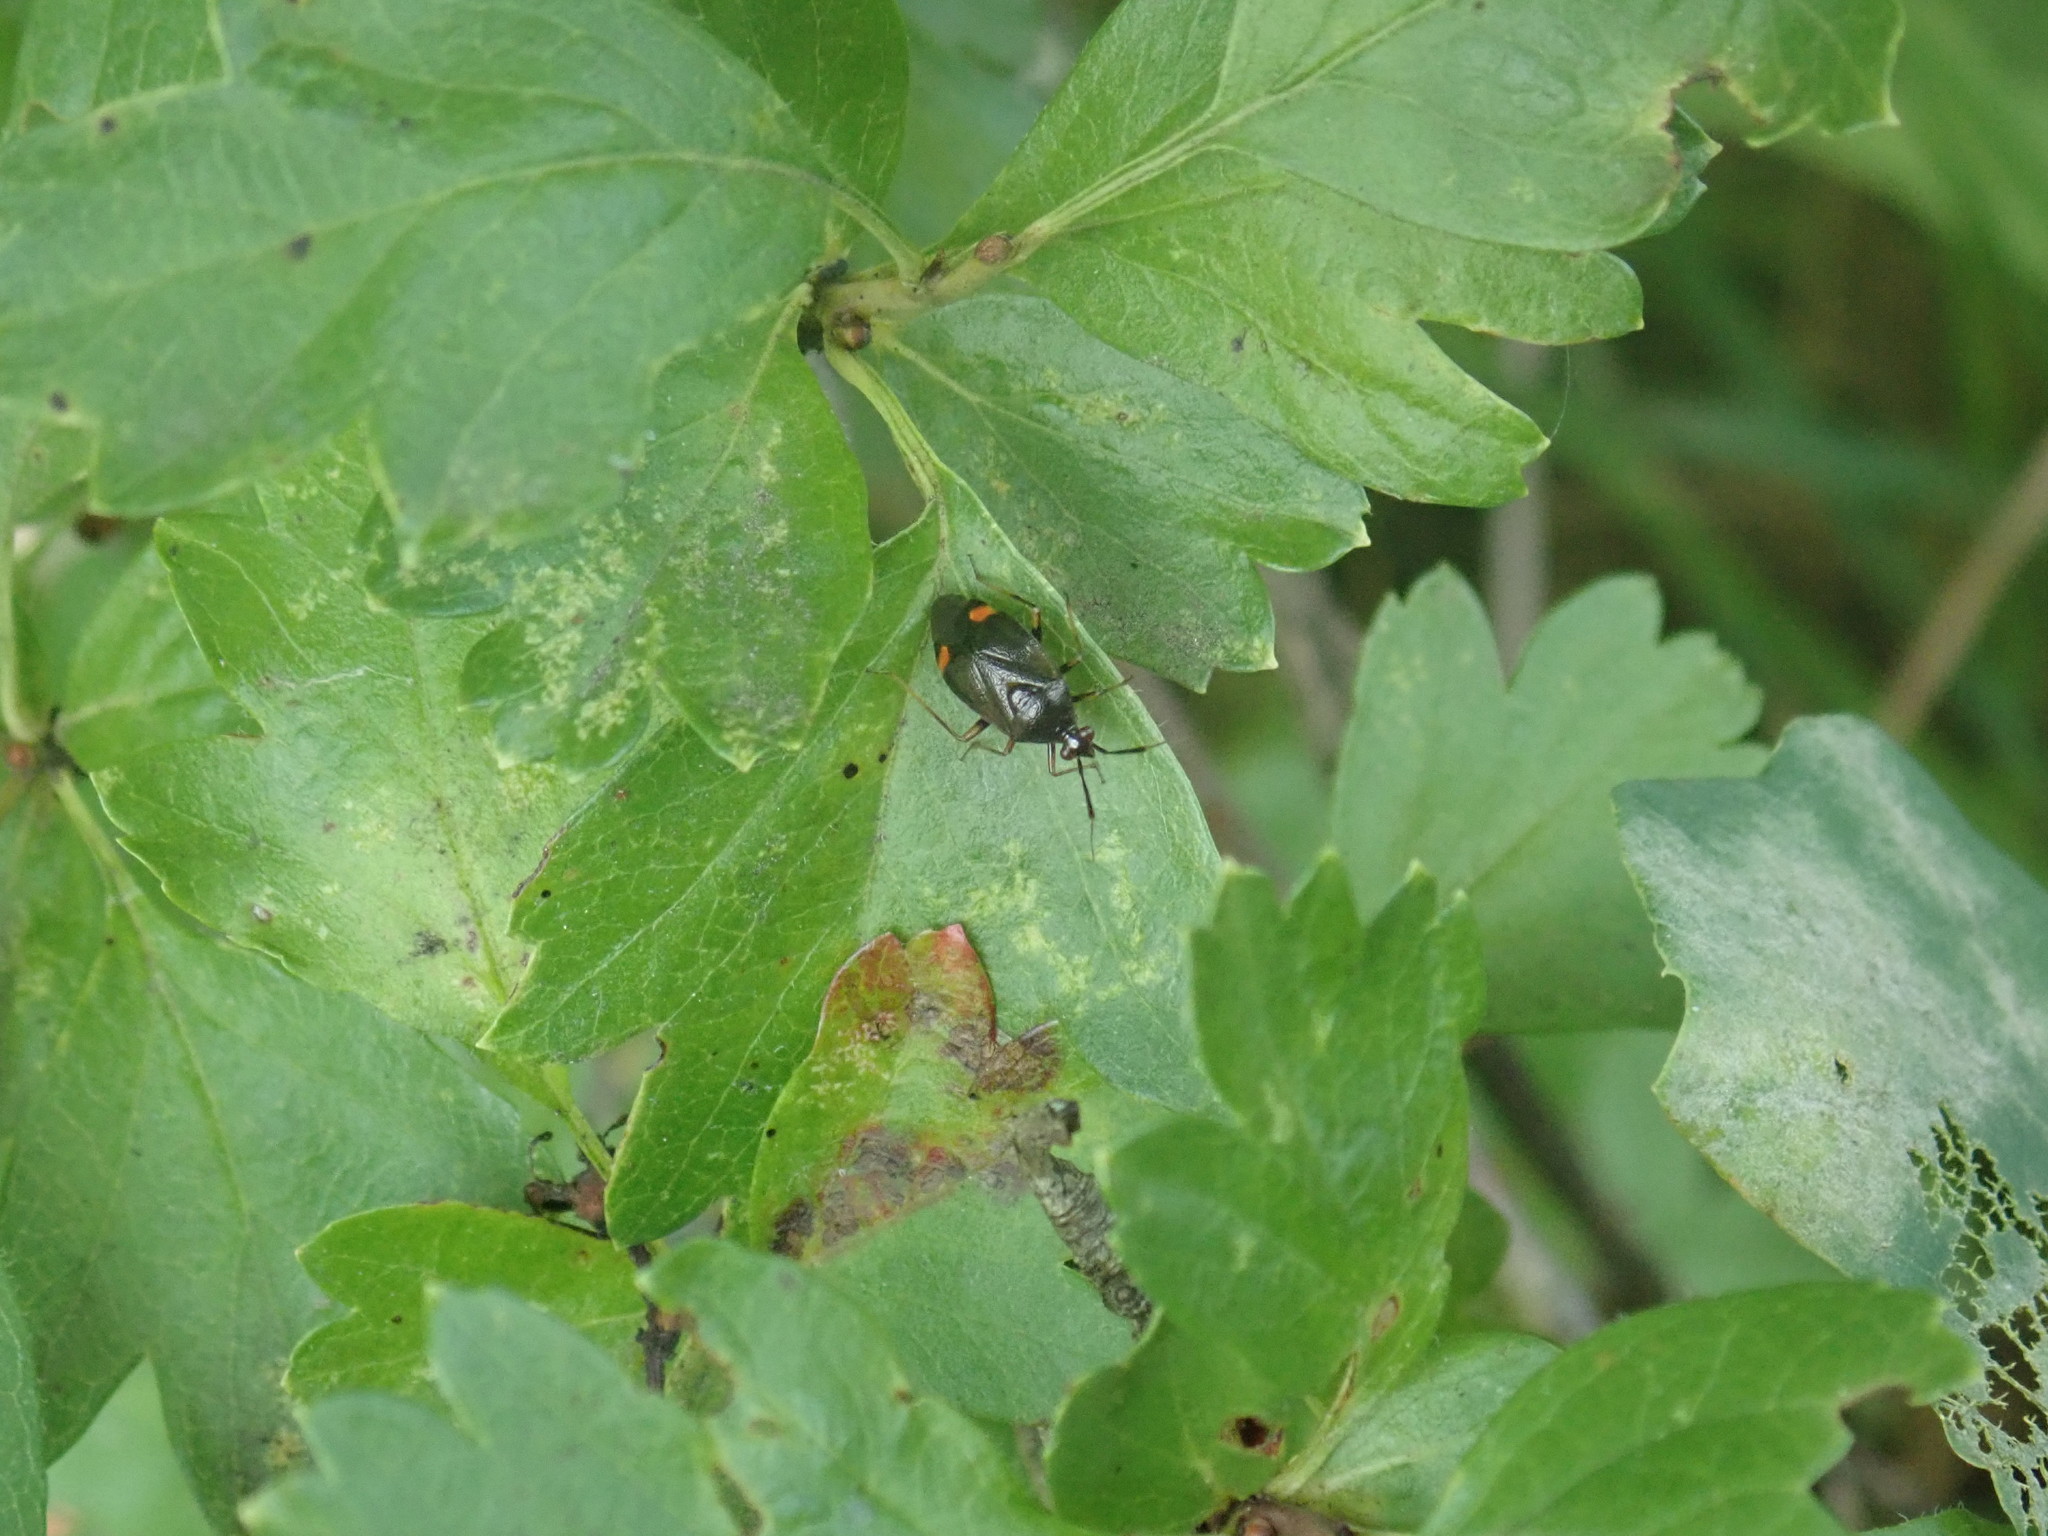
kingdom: Animalia
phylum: Arthropoda
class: Insecta
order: Hemiptera
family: Miridae
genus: Deraeocoris
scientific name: Deraeocoris ruber
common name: Plant bug
